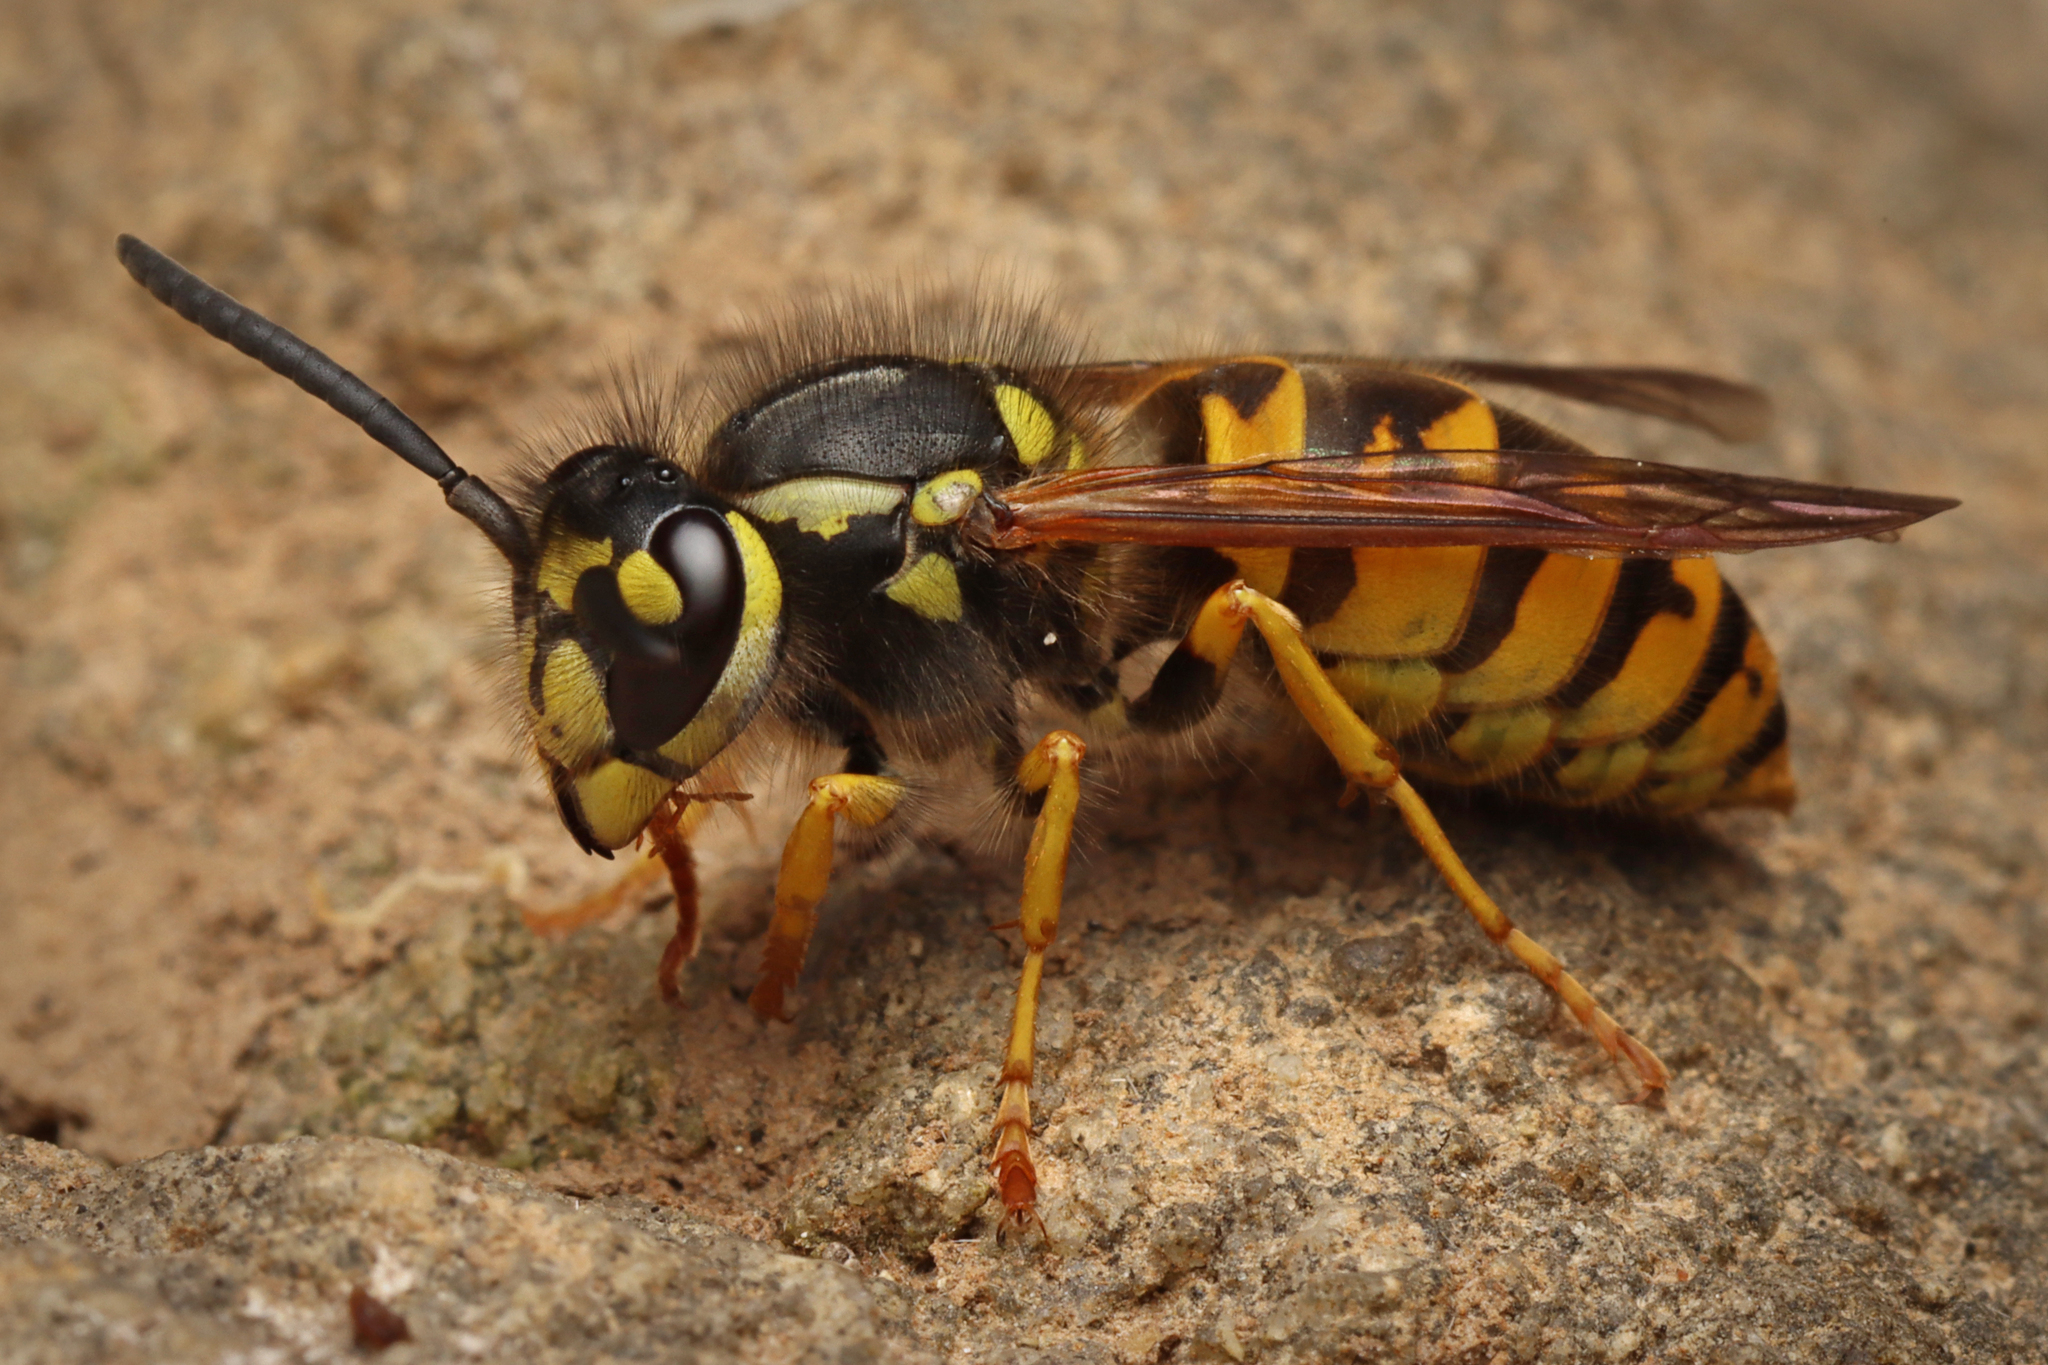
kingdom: Animalia
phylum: Arthropoda
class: Insecta
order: Hymenoptera
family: Vespidae
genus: Vespula
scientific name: Vespula germanica
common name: German wasp
